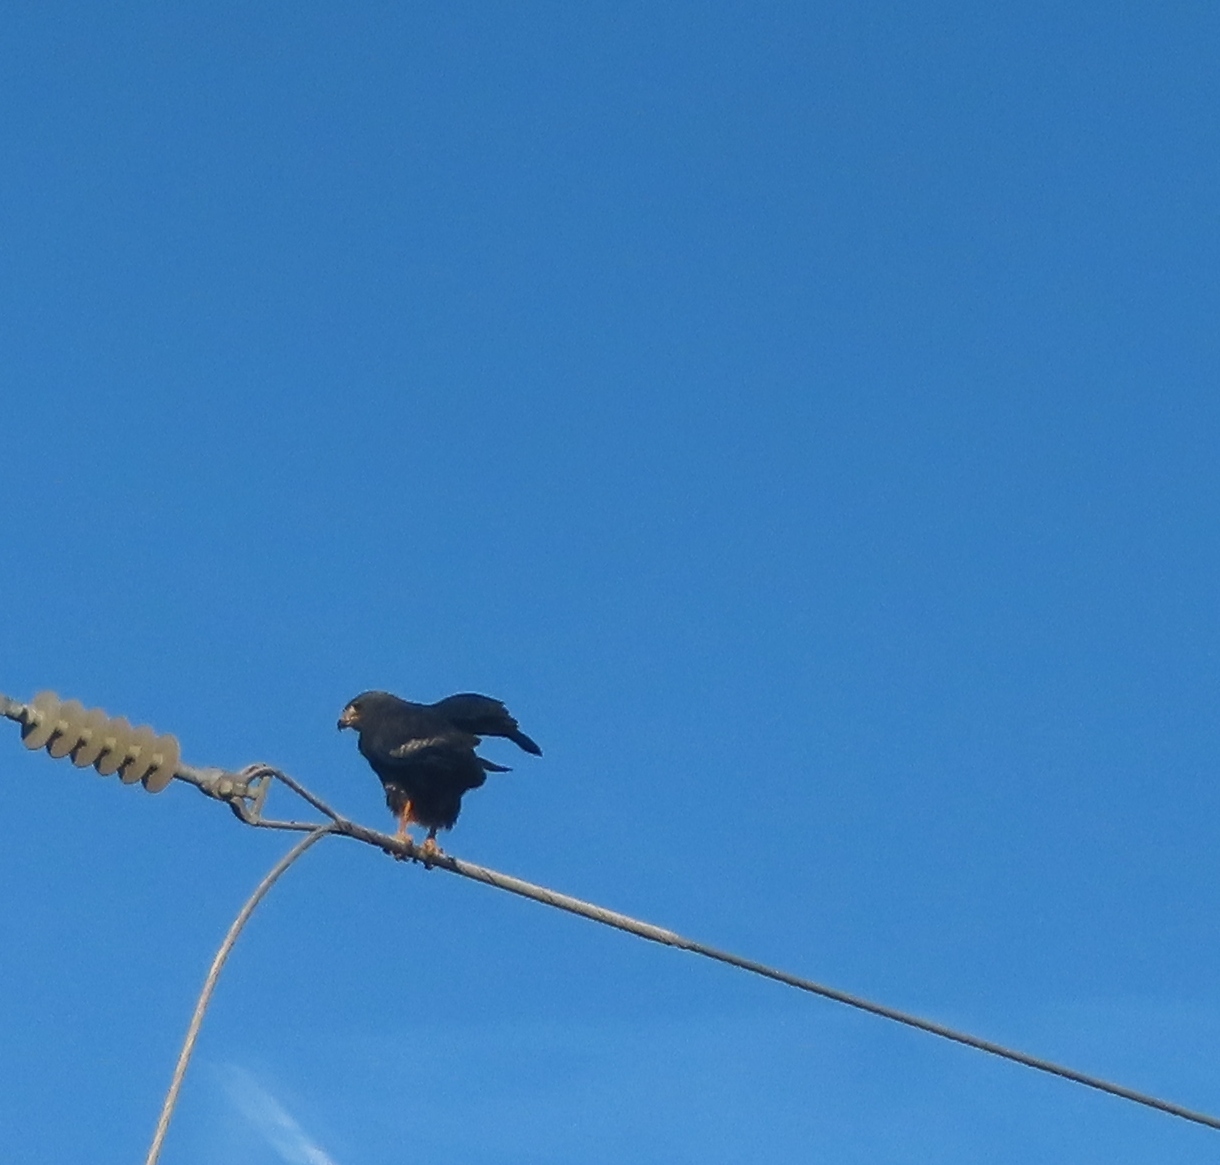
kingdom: Animalia
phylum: Chordata
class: Aves
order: Accipitriformes
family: Accipitridae
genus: Buteo
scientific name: Buteo rufofuscus
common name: Jackal buzzard
